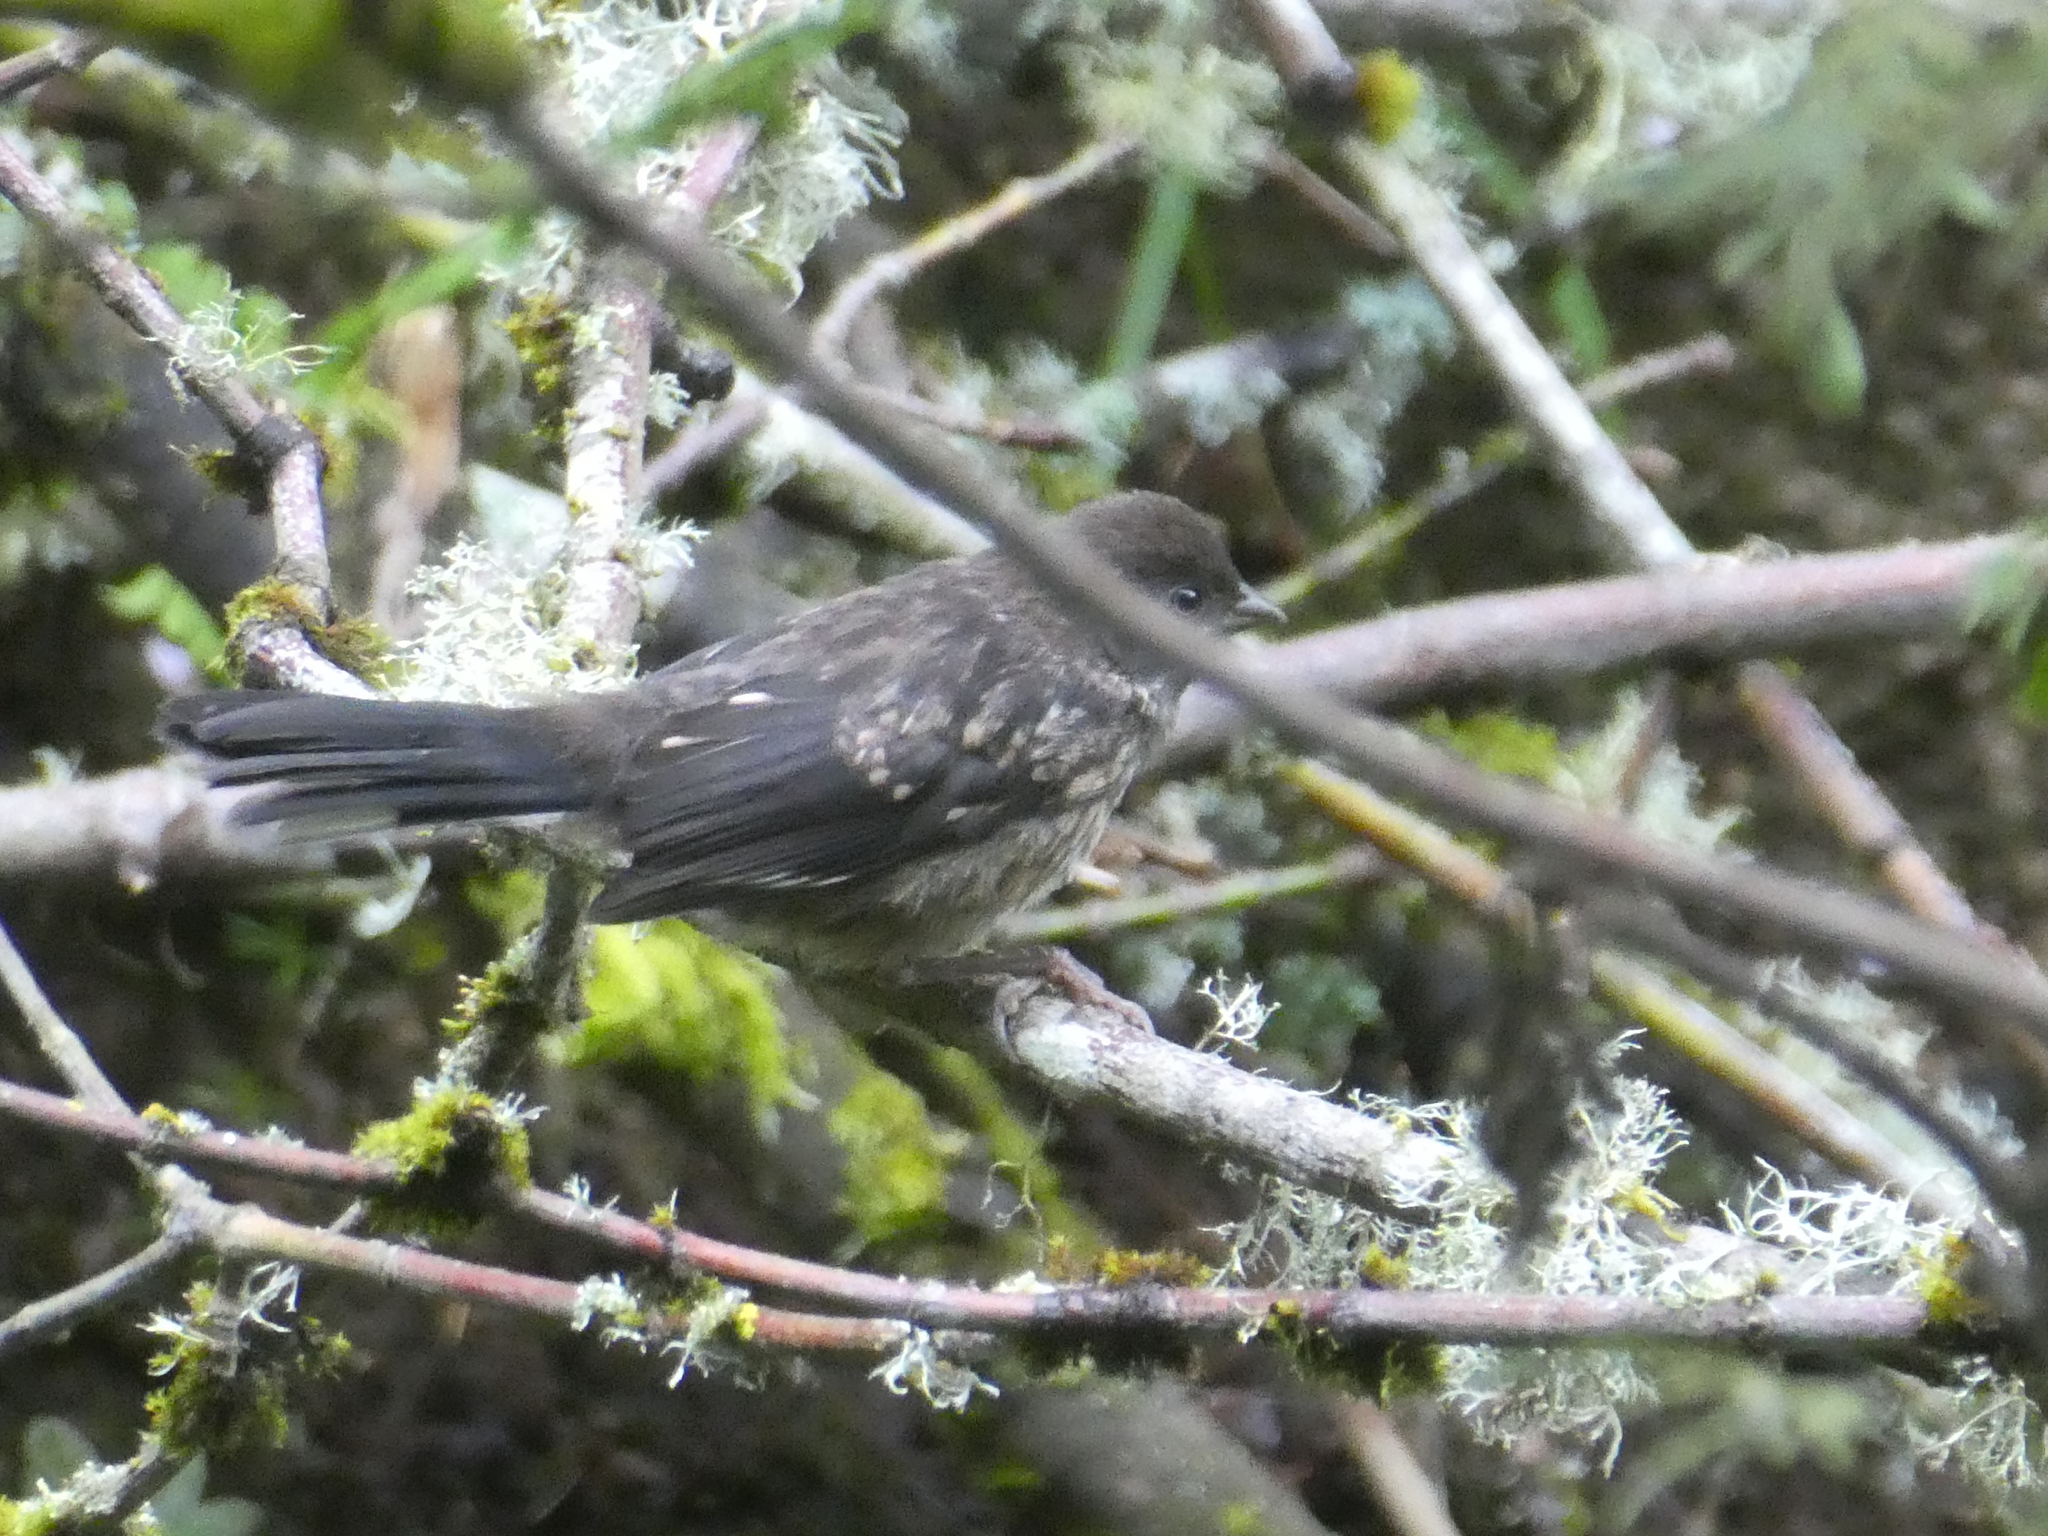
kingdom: Animalia
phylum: Chordata
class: Aves
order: Passeriformes
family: Passerellidae
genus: Pipilo
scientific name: Pipilo maculatus
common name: Spotted towhee
